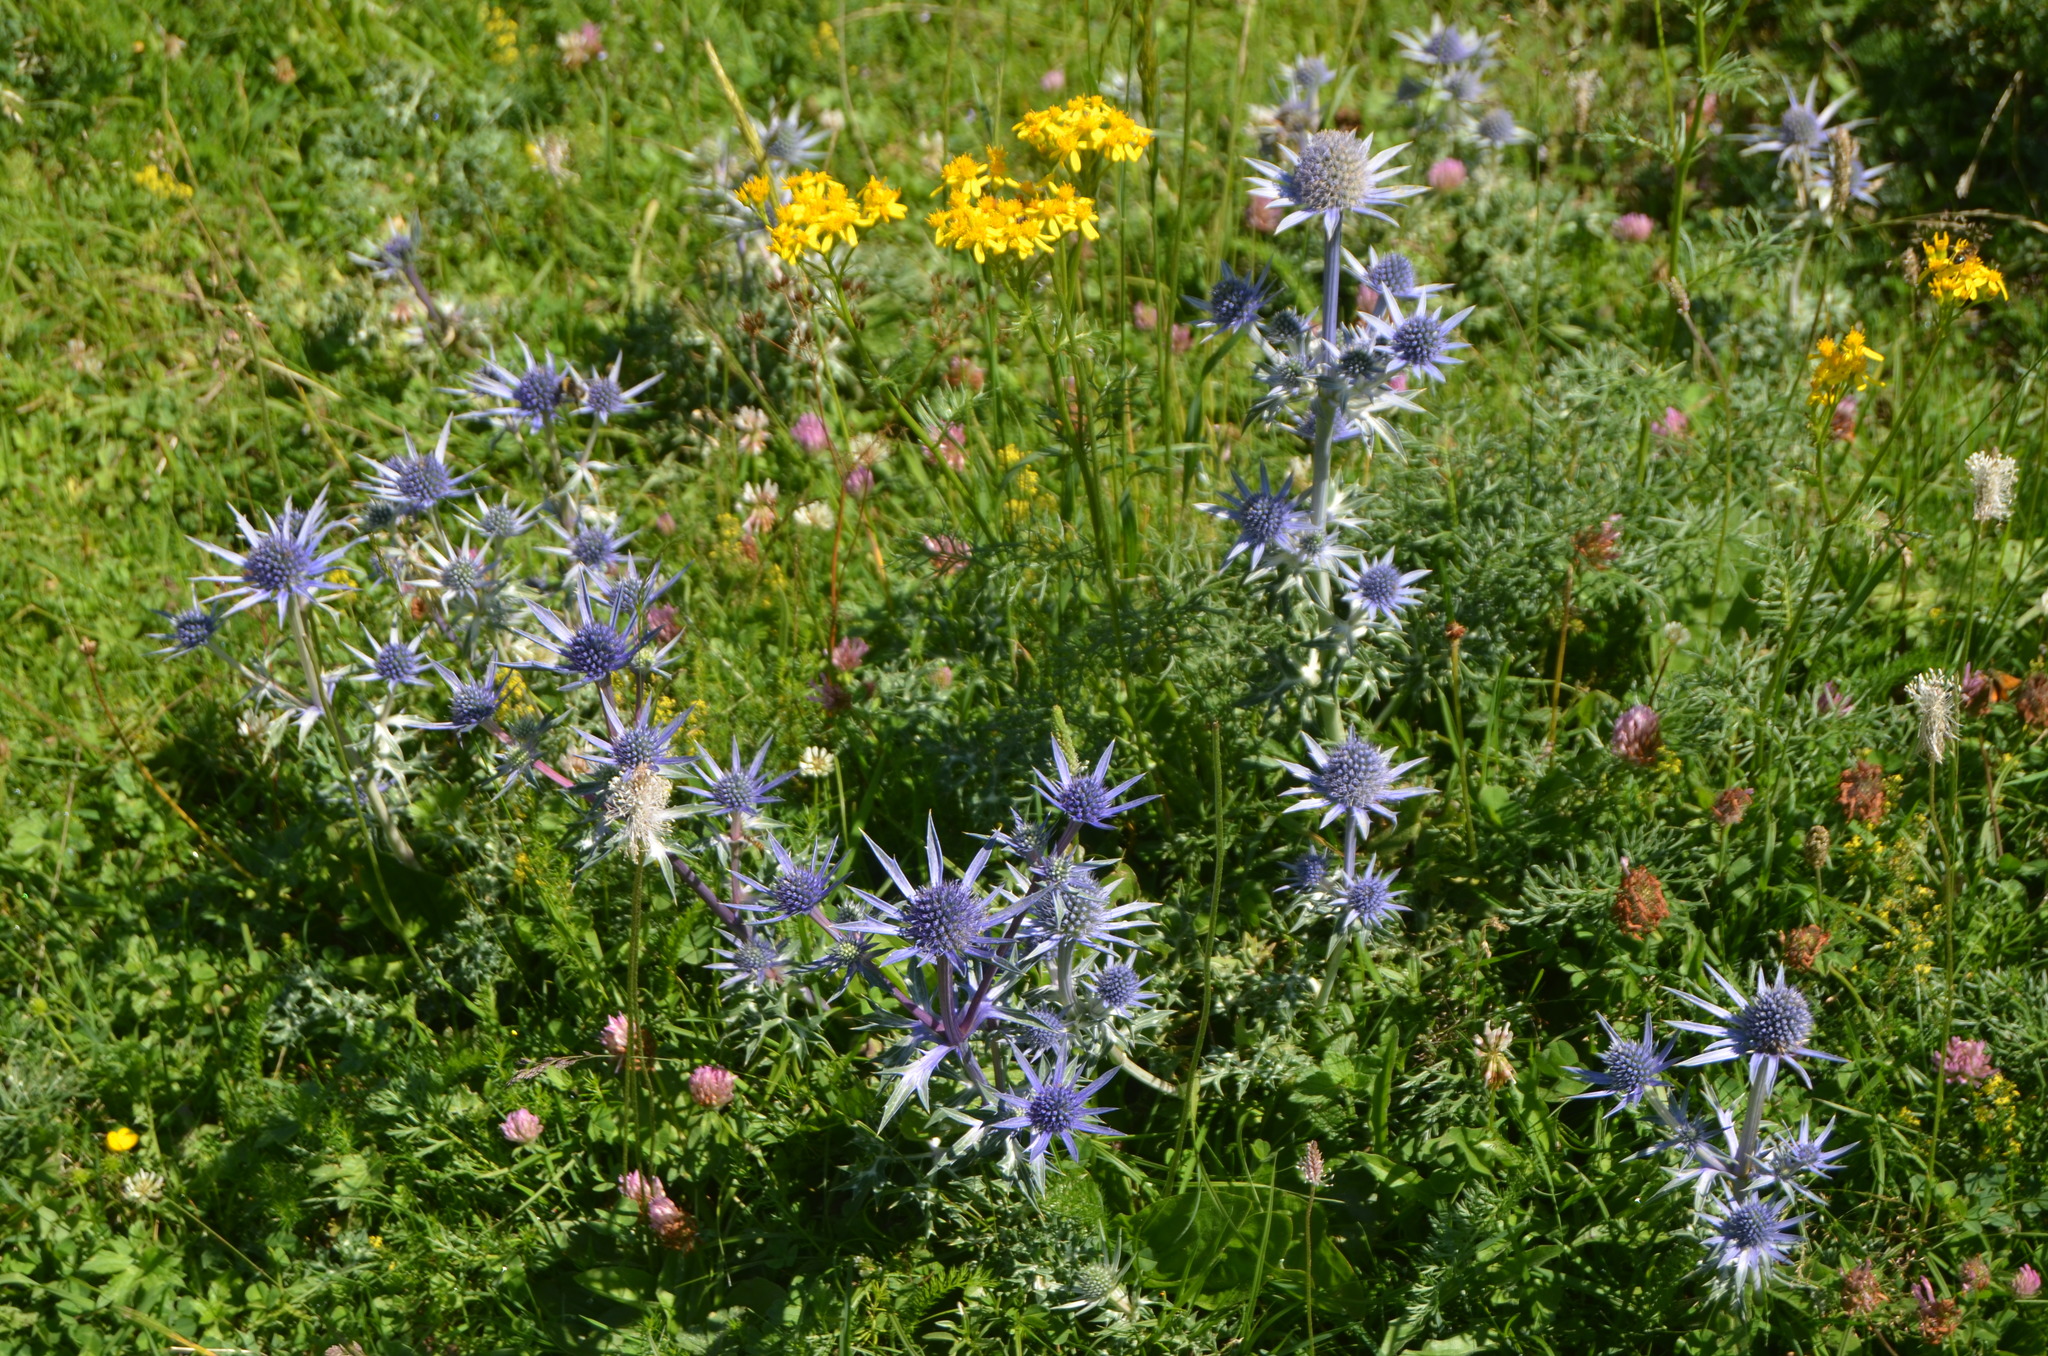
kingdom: Plantae
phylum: Tracheophyta
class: Magnoliopsida
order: Apiales
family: Apiaceae
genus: Eryngium
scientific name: Eryngium bourgatii
